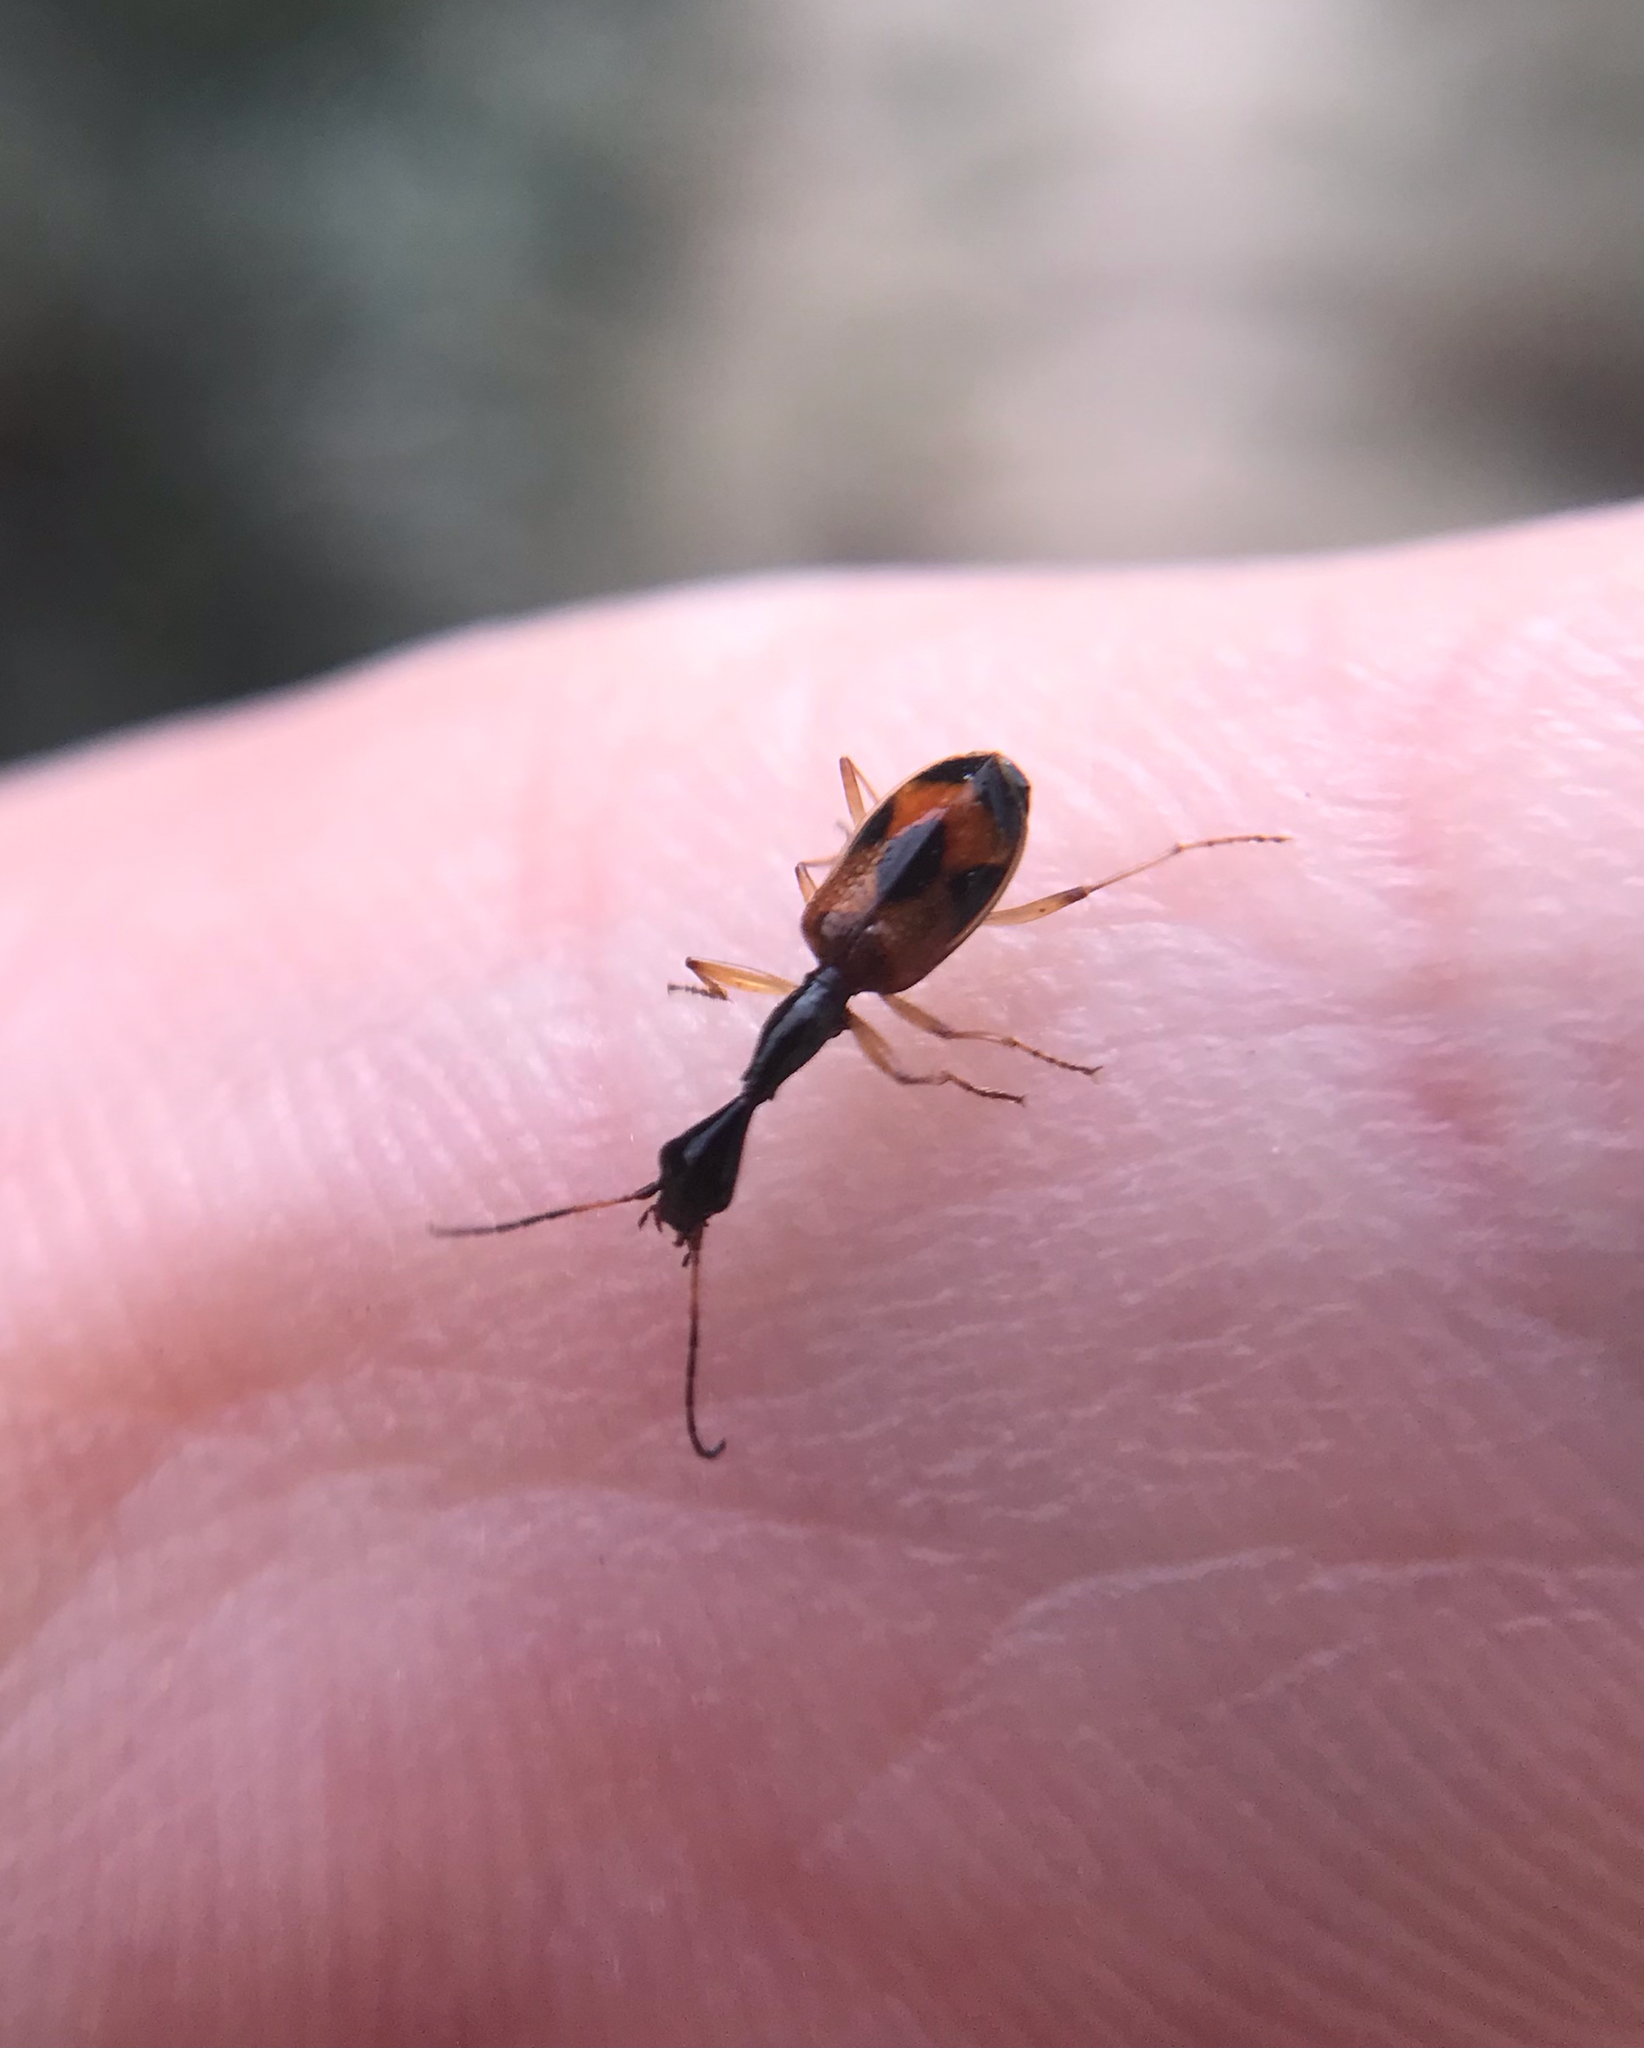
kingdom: Animalia
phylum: Arthropoda
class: Insecta
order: Coleoptera
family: Carabidae
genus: Colliuris
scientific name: Colliuris pensylvanica
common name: Long-necked ground beetle
